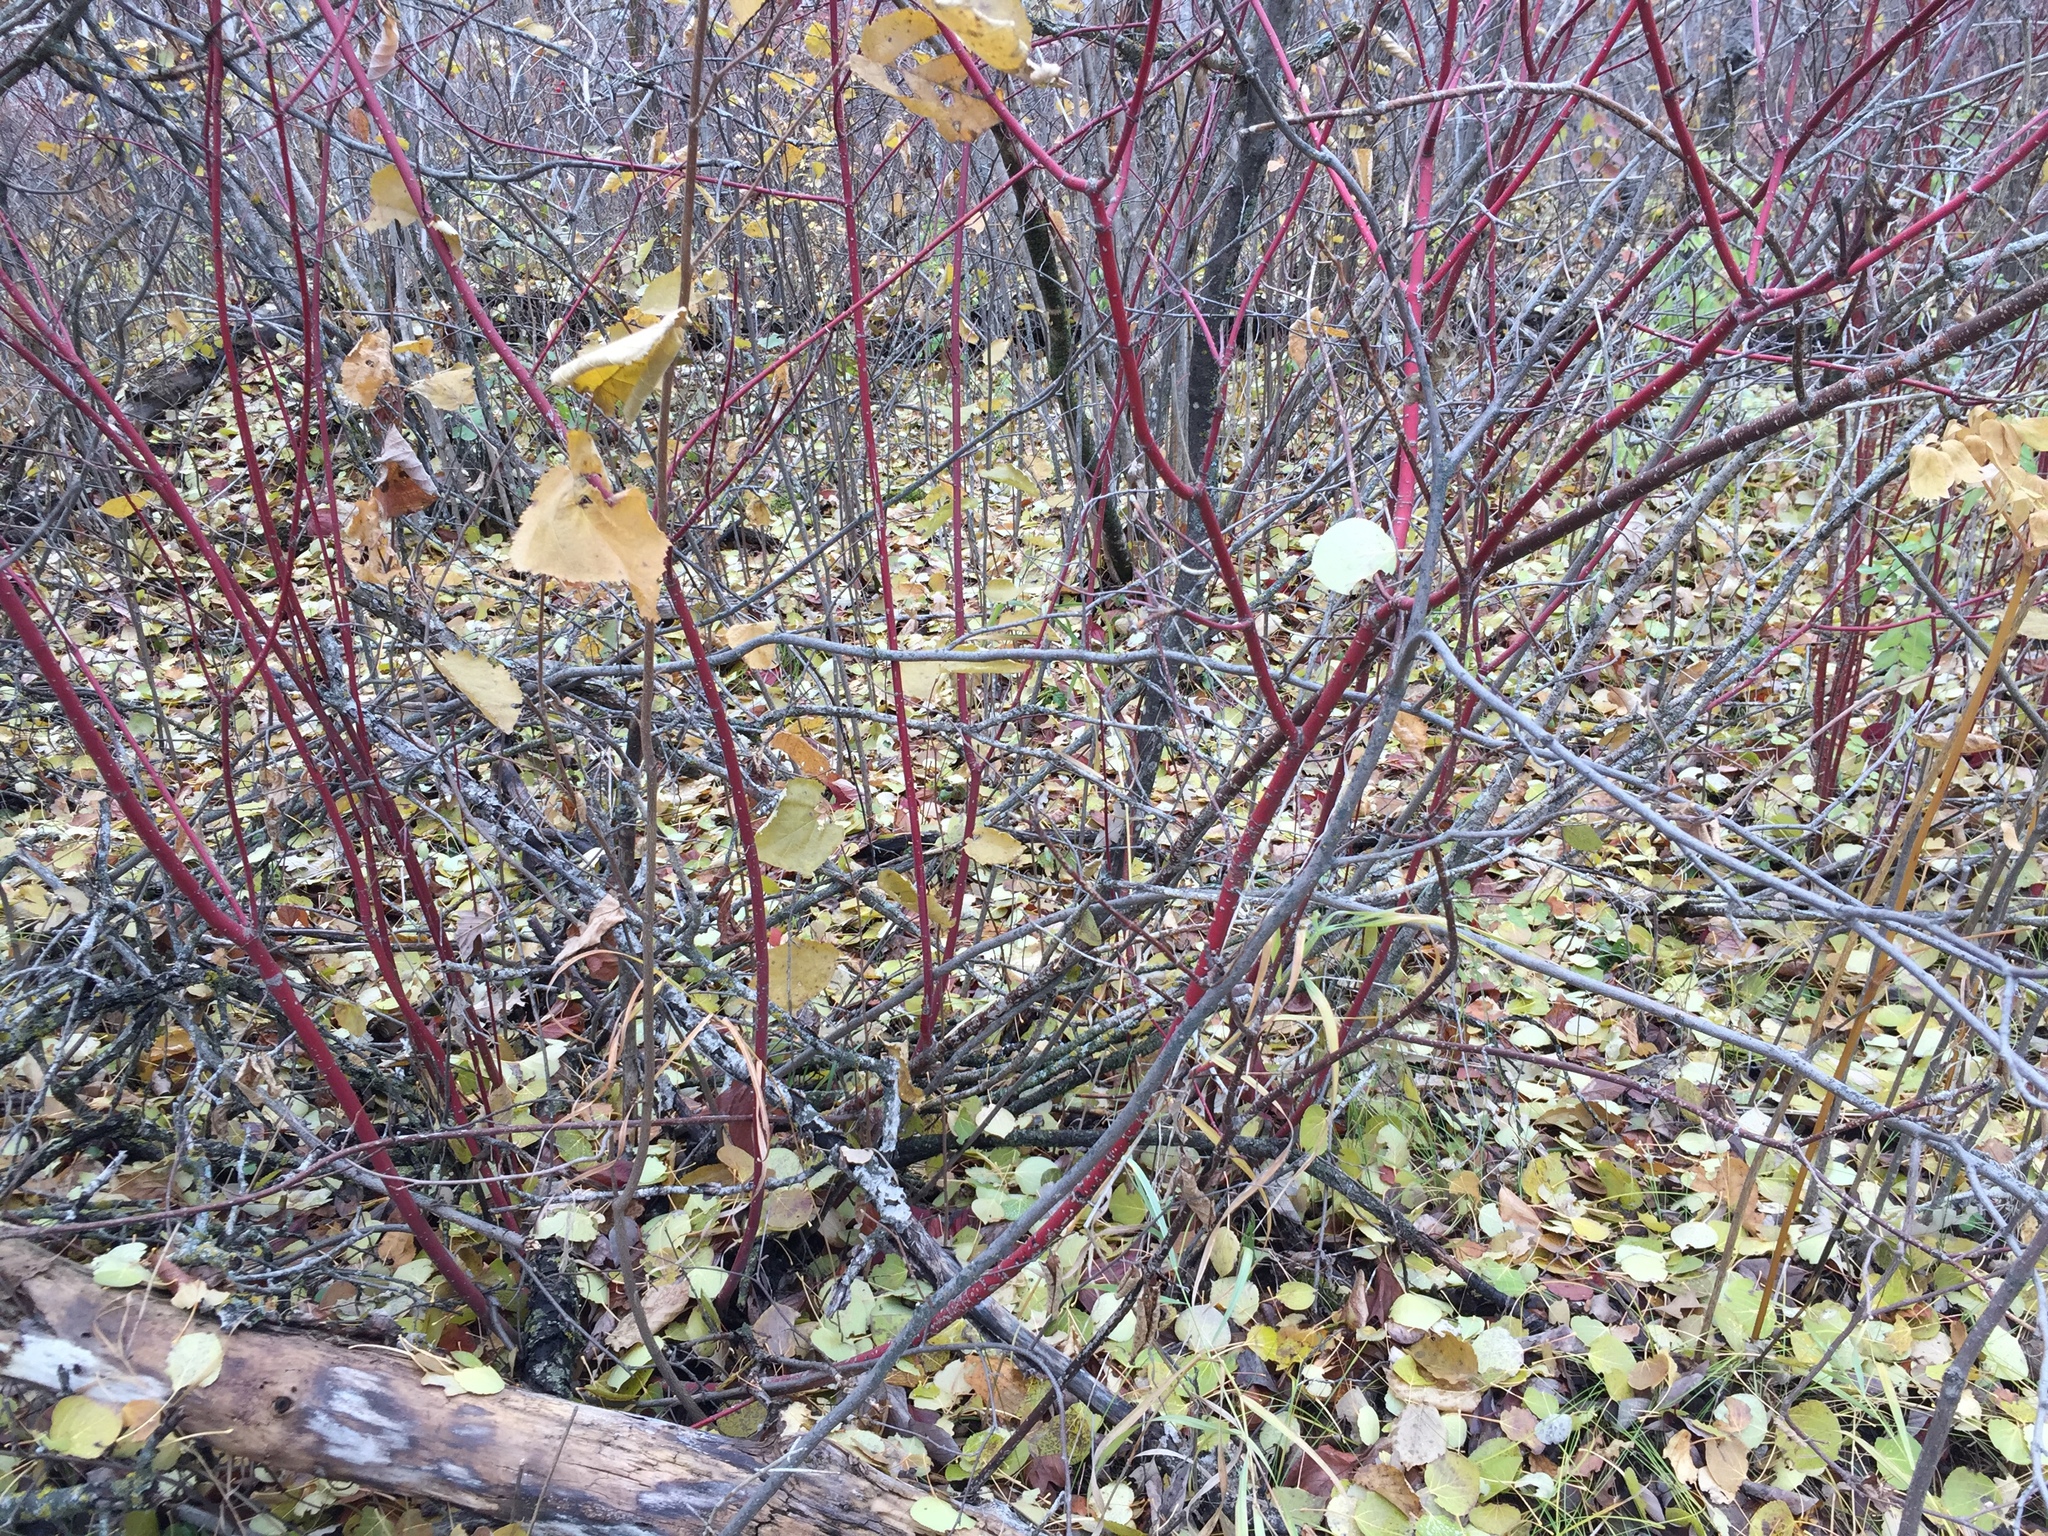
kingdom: Plantae
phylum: Tracheophyta
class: Magnoliopsida
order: Cornales
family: Cornaceae
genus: Cornus
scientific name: Cornus sericea
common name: Red-osier dogwood
